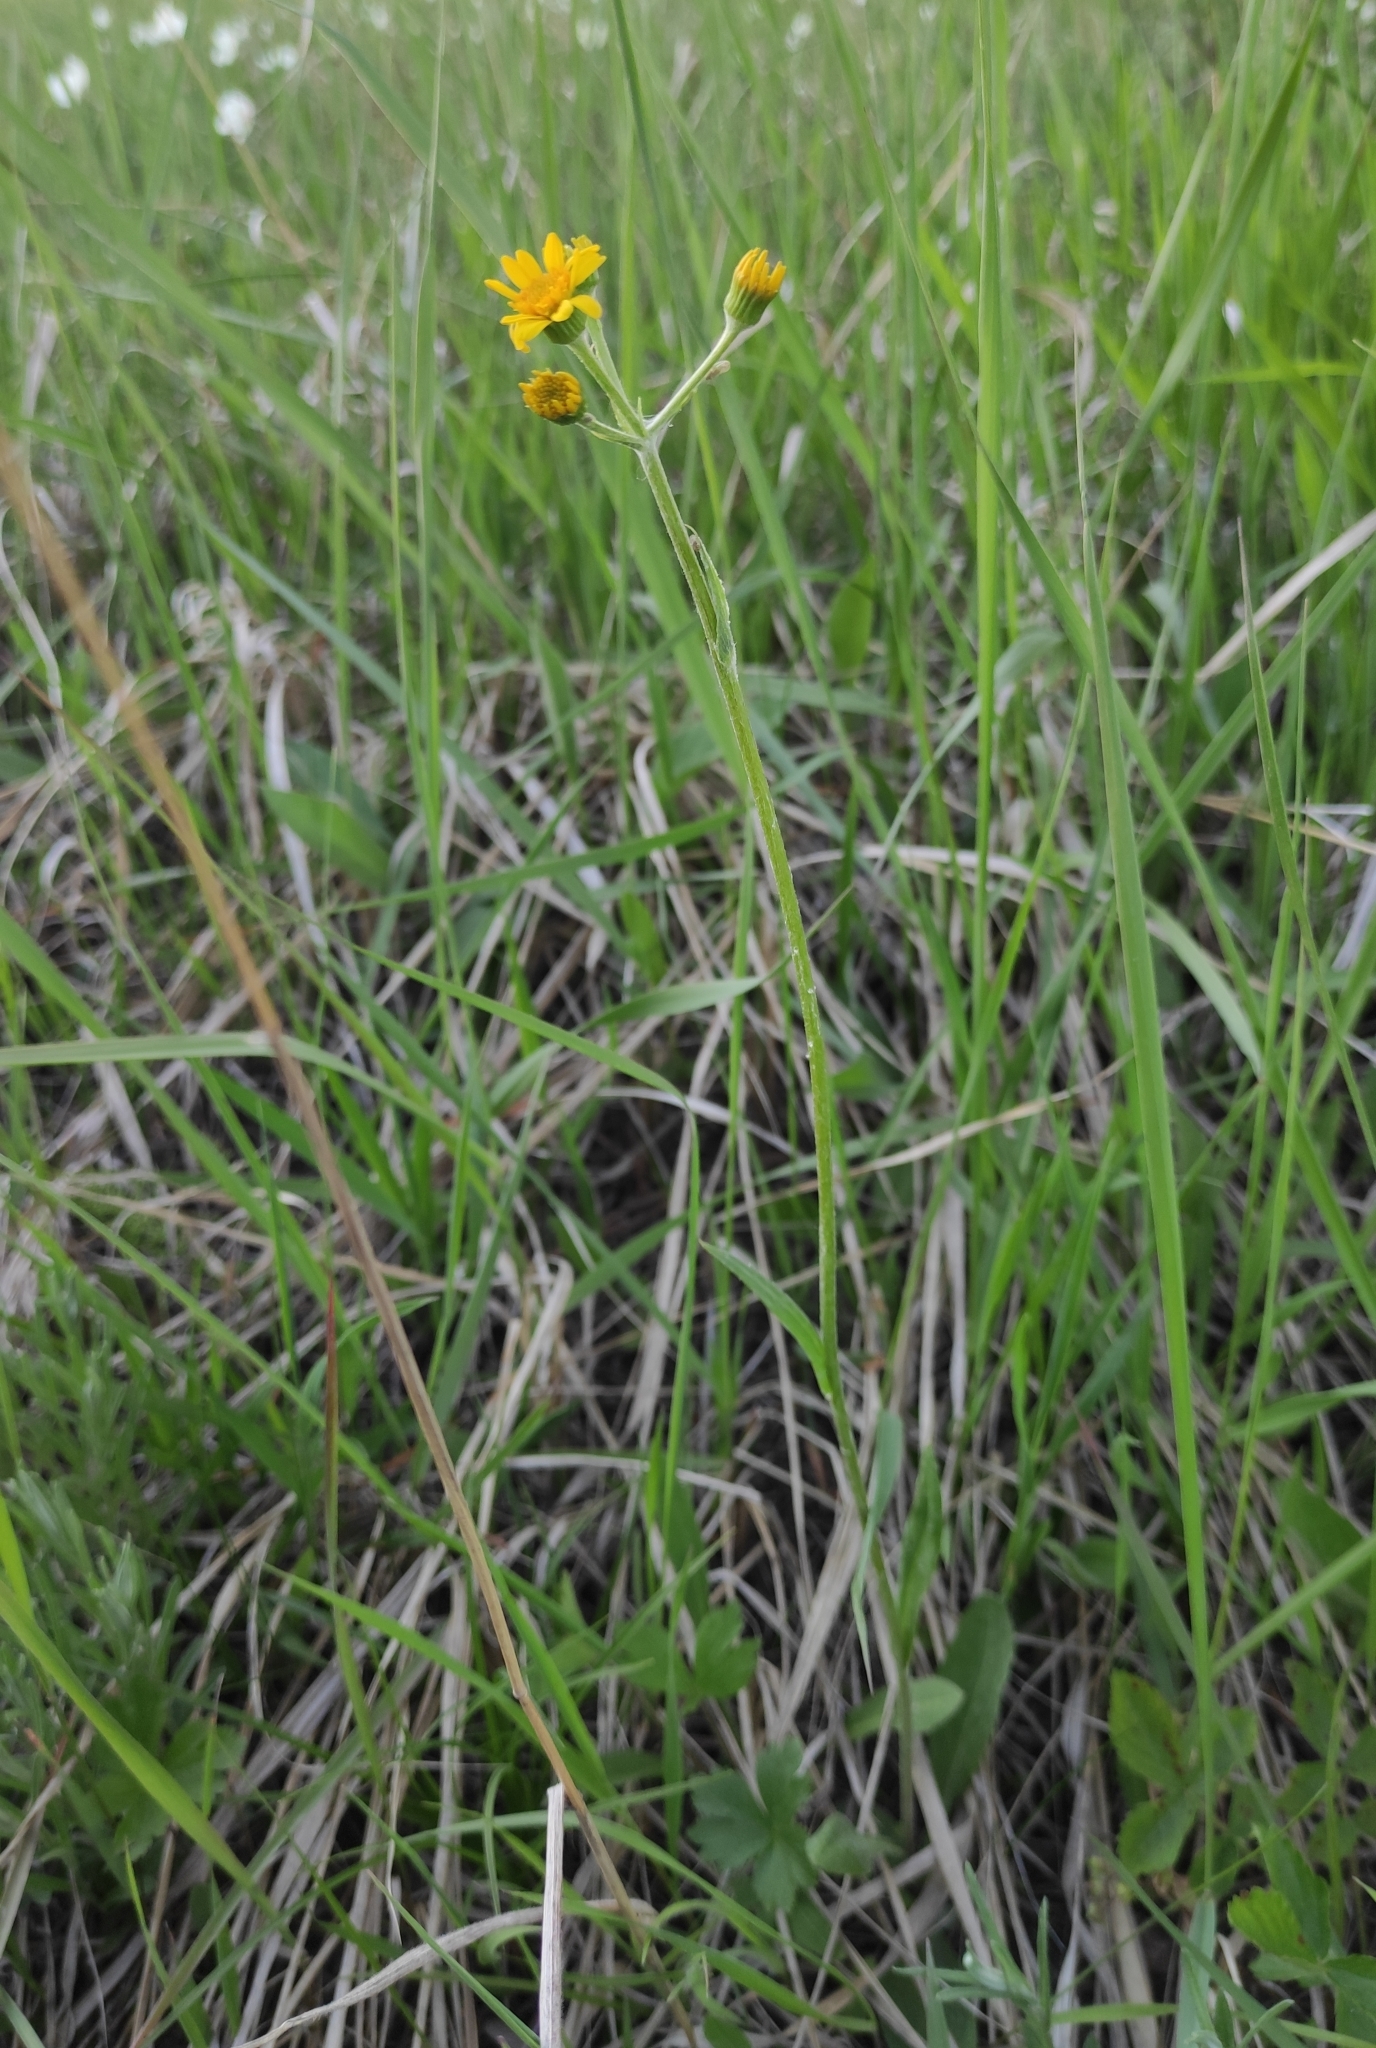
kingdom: Plantae
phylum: Tracheophyta
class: Magnoliopsida
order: Asterales
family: Asteraceae
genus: Tephroseris
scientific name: Tephroseris integrifolia
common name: Field fleawort
